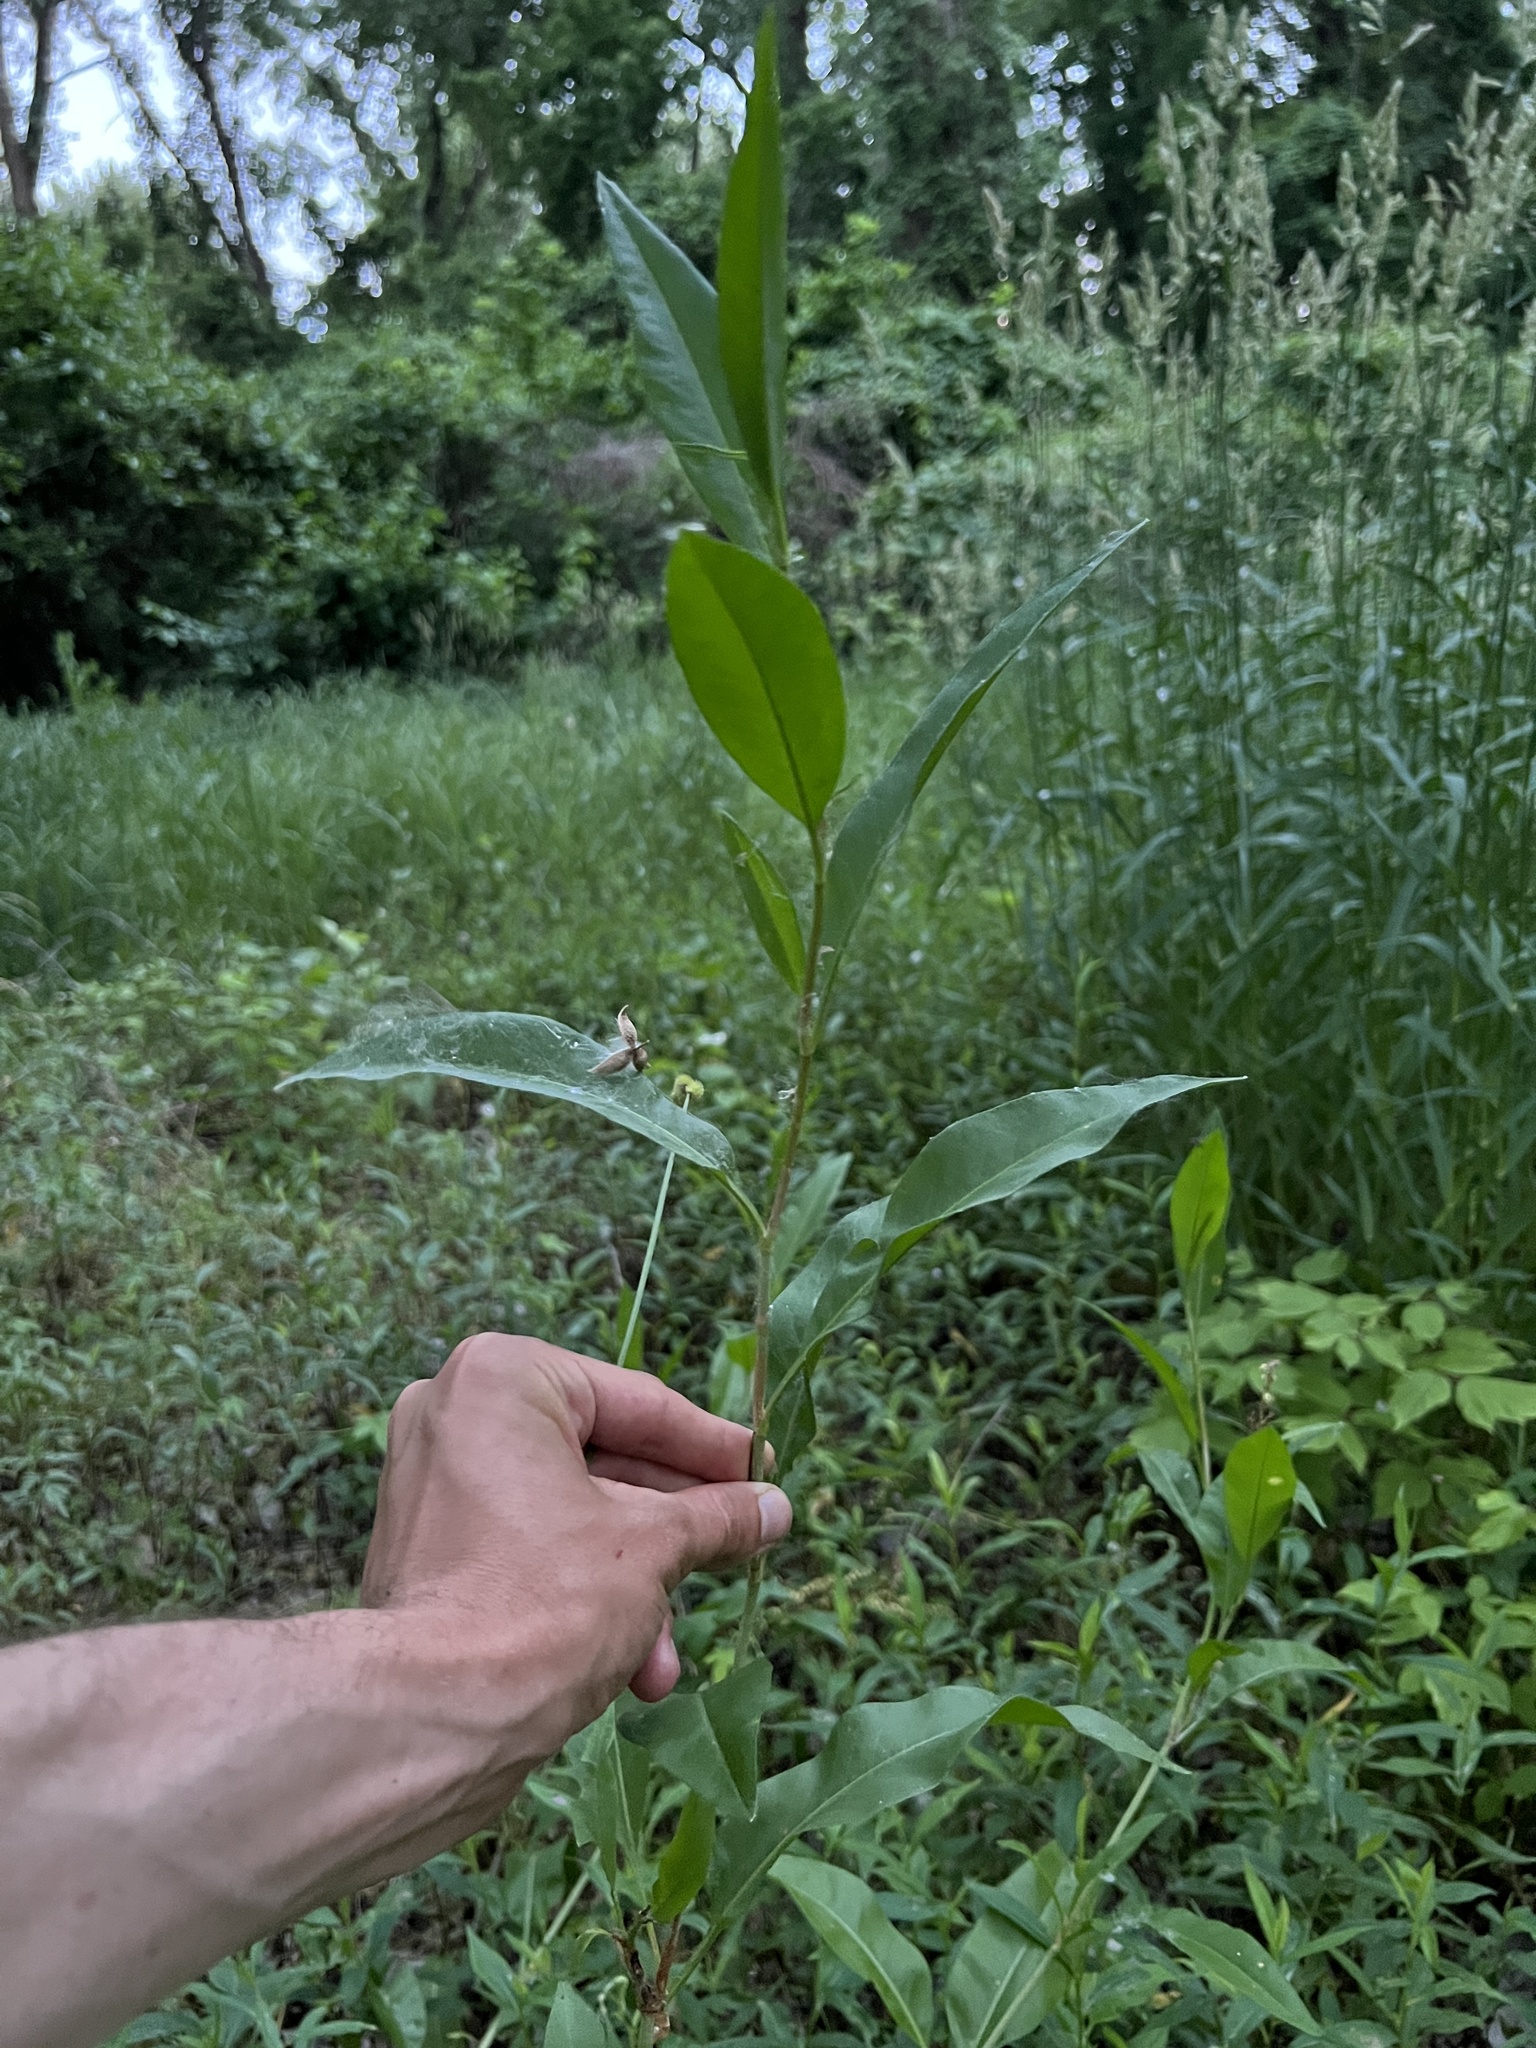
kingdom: Plantae
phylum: Tracheophyta
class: Magnoliopsida
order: Caryophyllales
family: Polygonaceae
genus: Persicaria
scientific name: Persicaria amphibia
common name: Amphibious bistort
